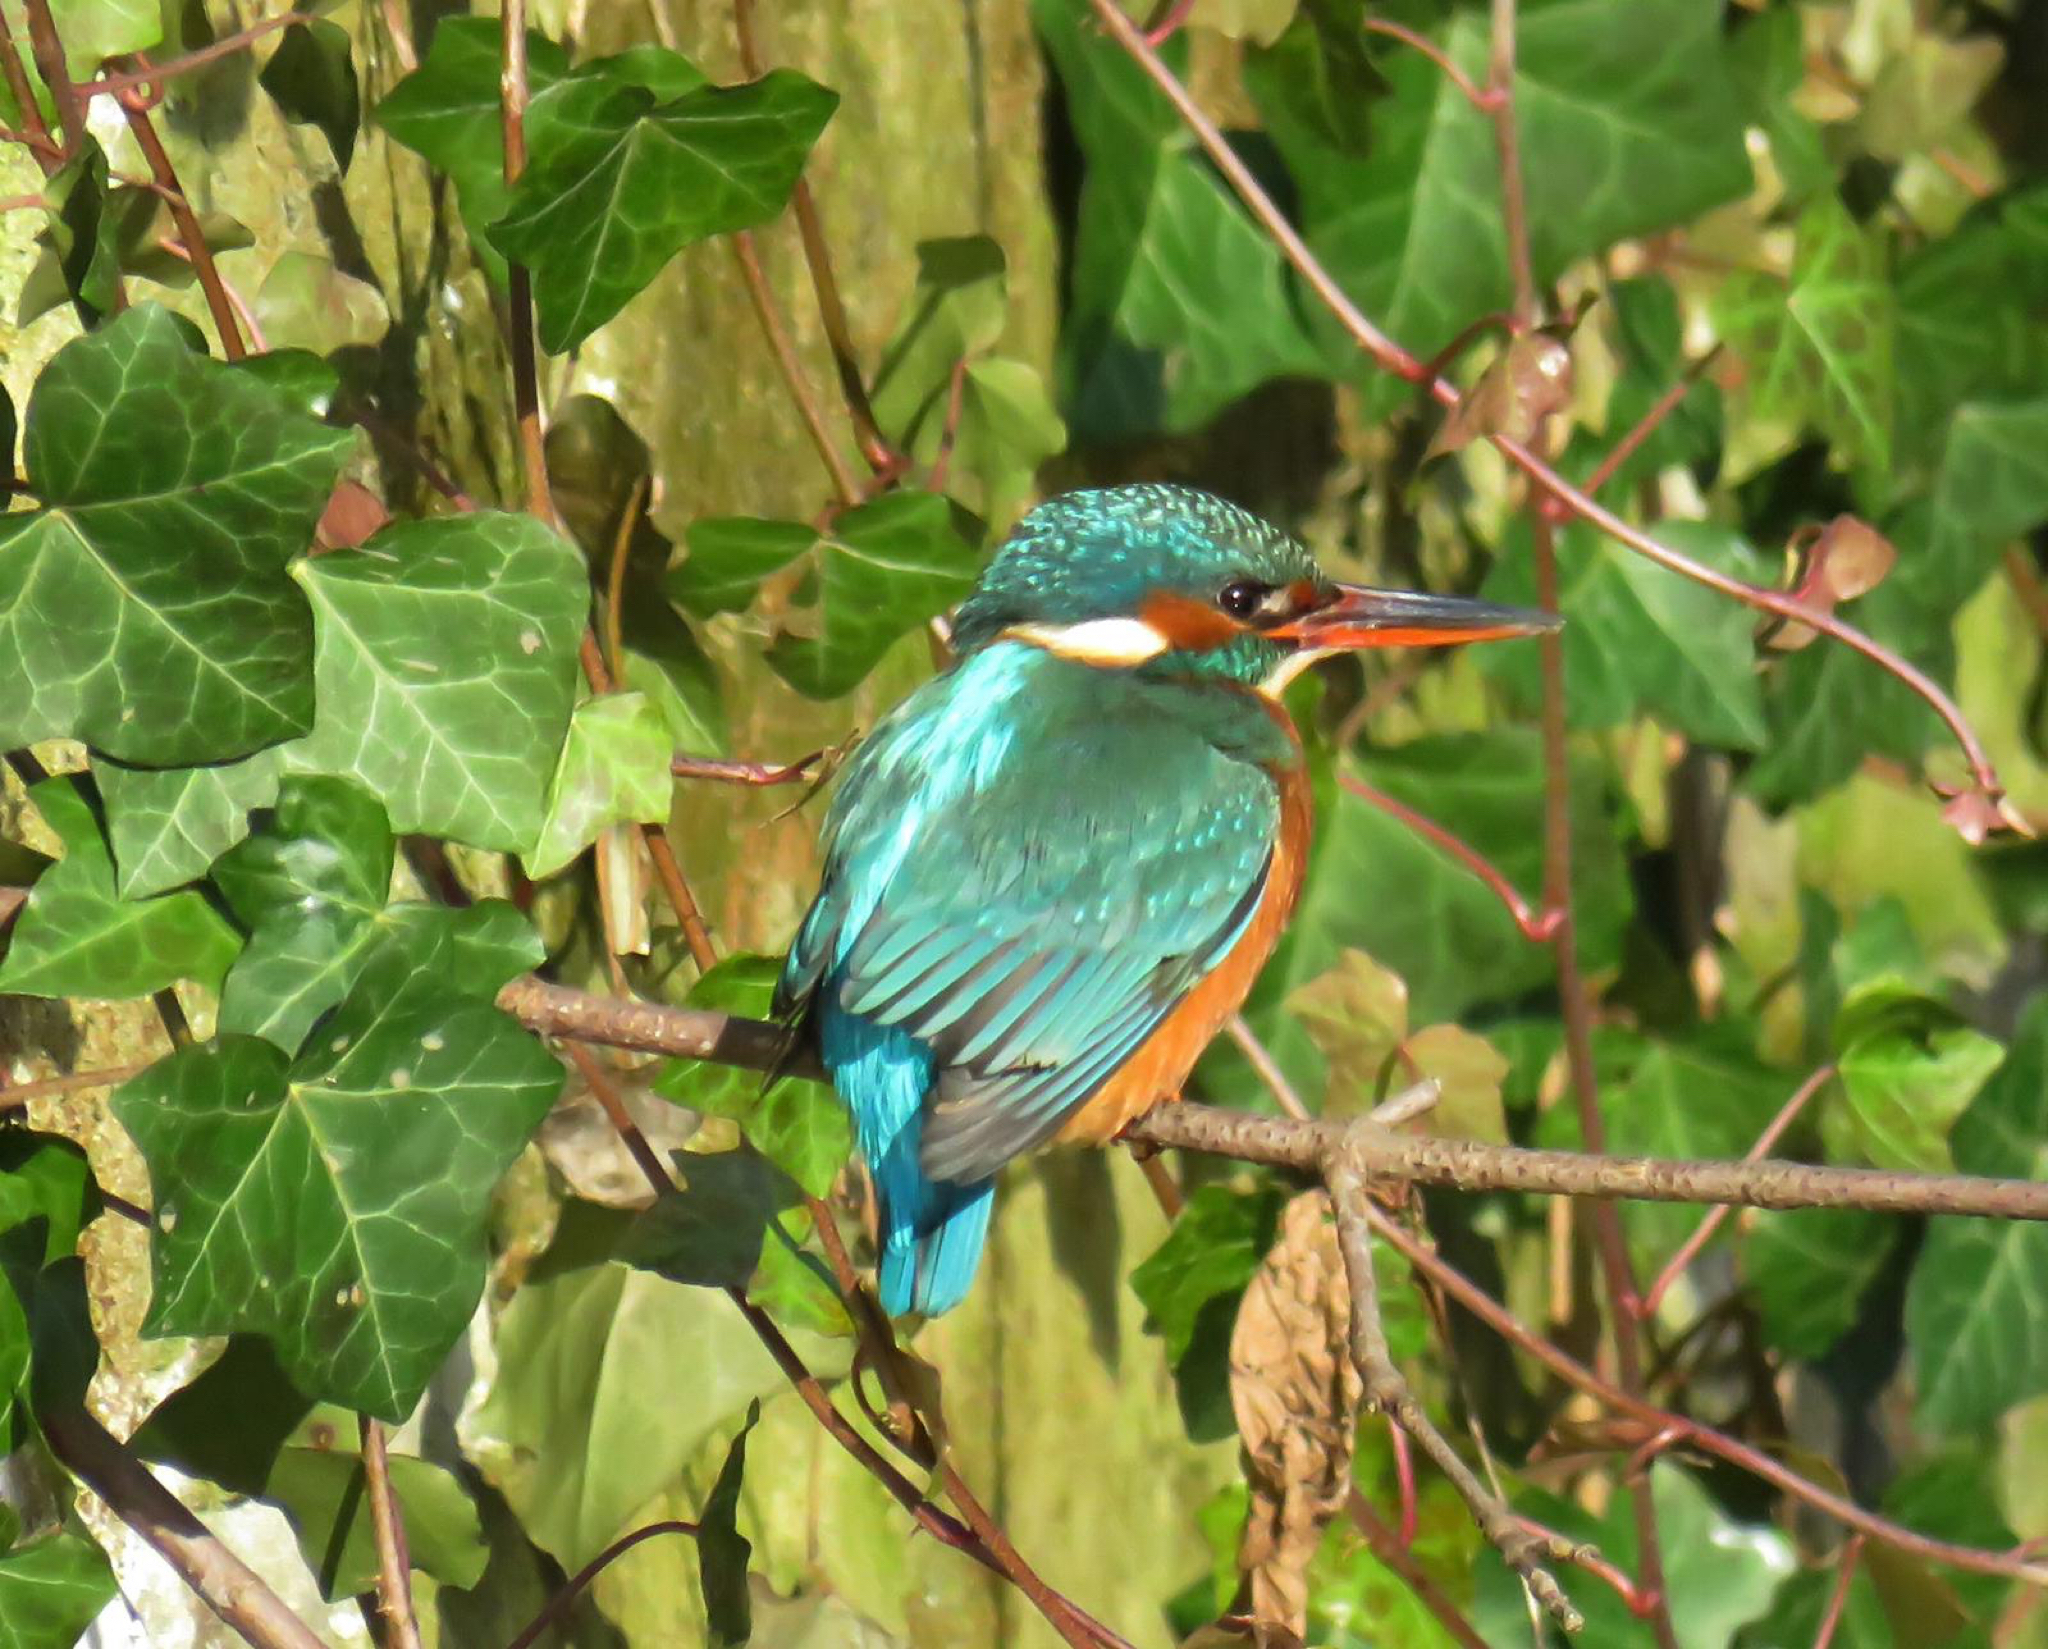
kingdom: Animalia
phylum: Chordata
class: Aves
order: Coraciiformes
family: Alcedinidae
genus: Alcedo
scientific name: Alcedo atthis
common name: Common kingfisher
